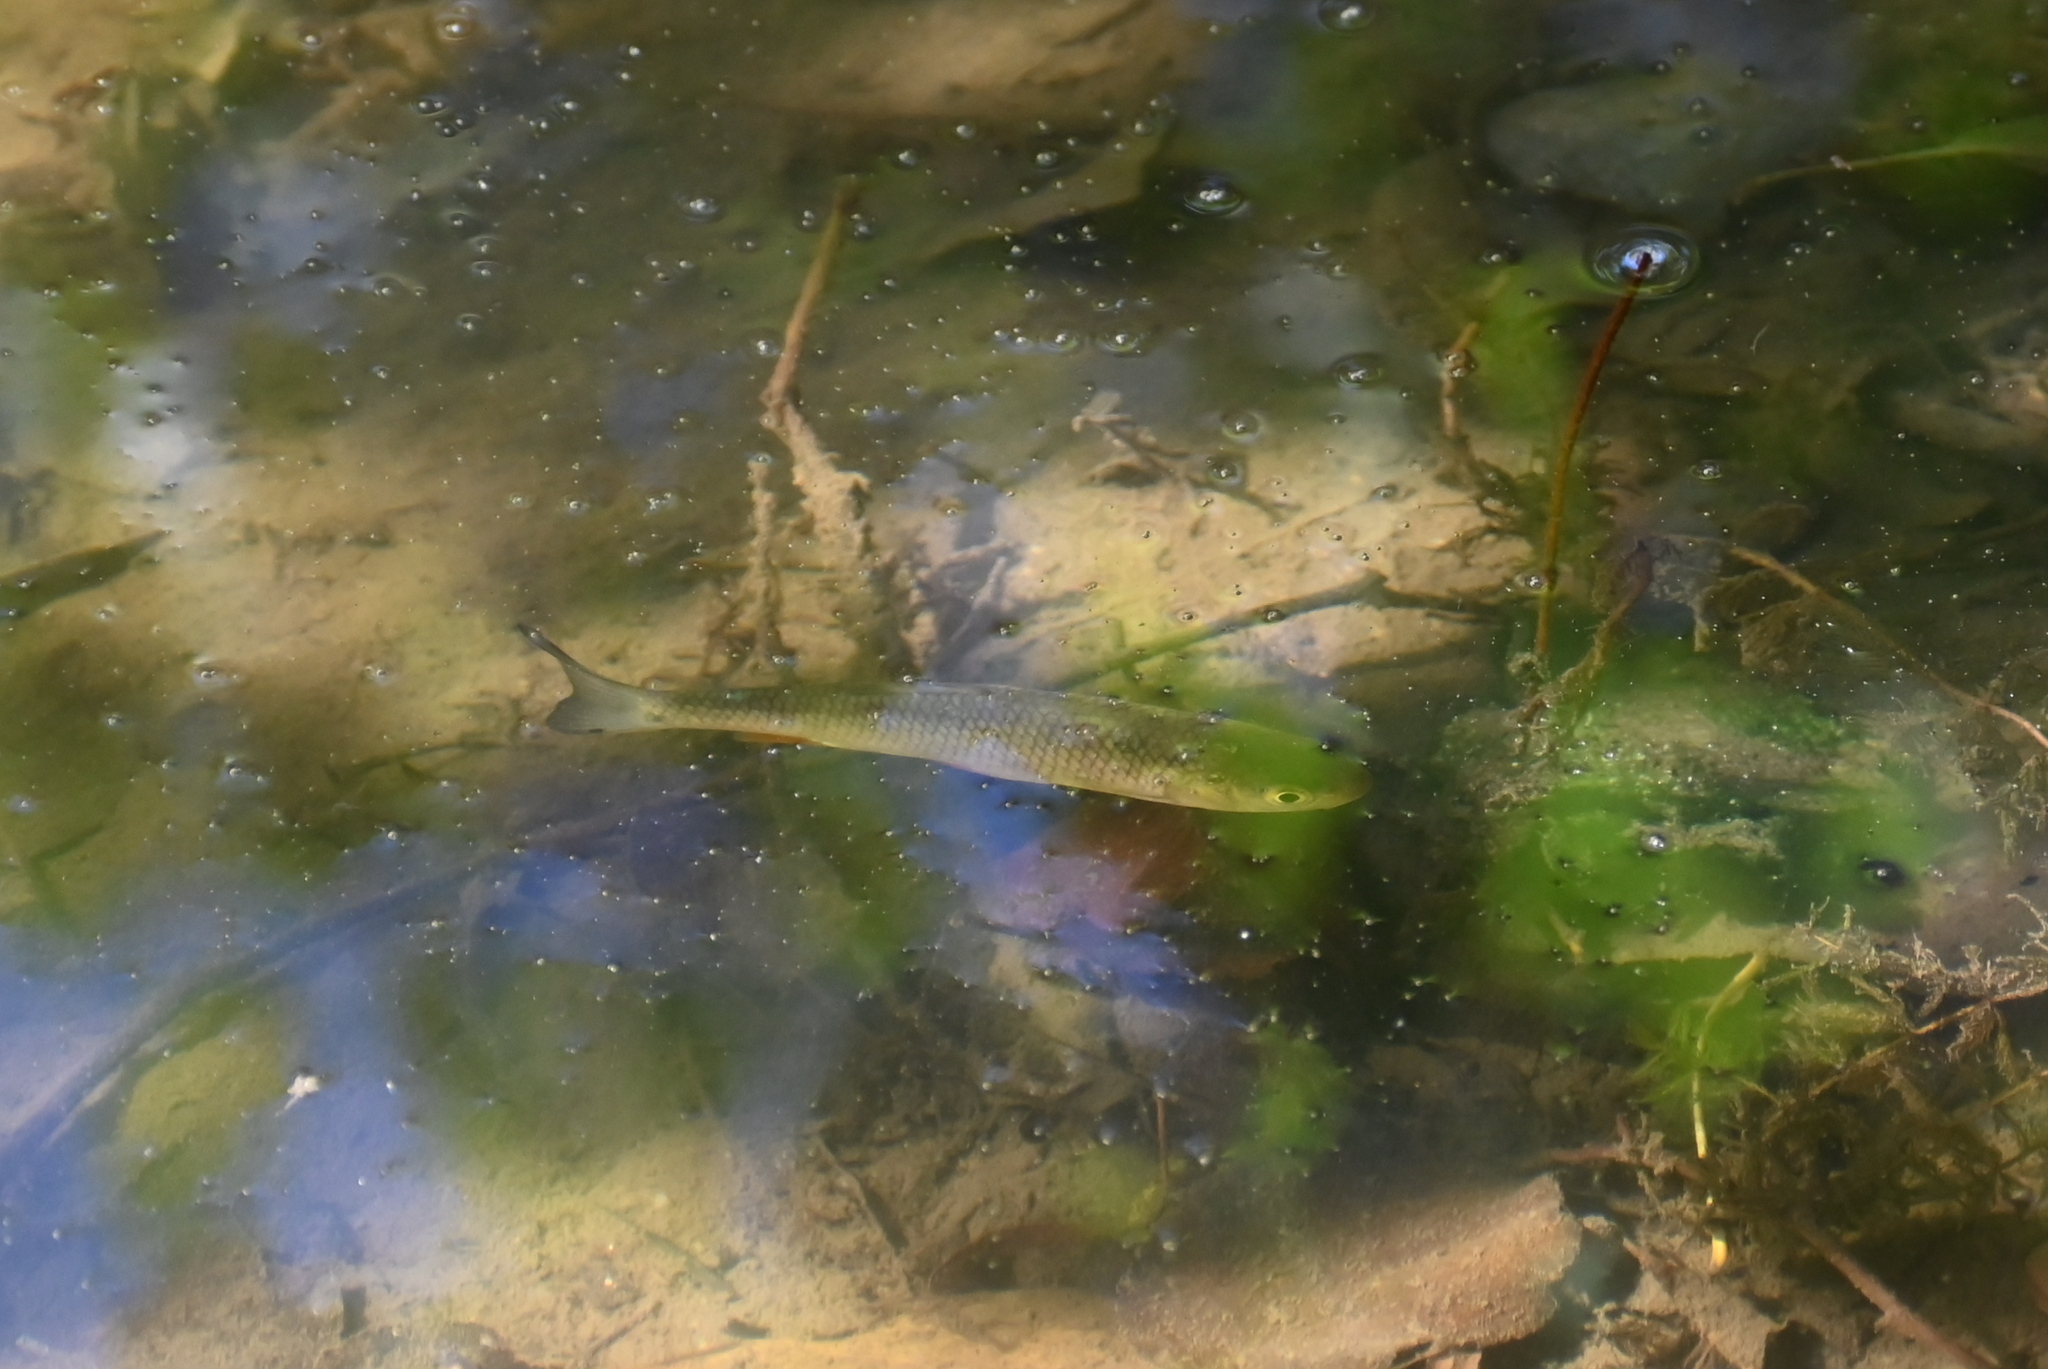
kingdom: Animalia
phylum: Chordata
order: Cypriniformes
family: Cyprinidae
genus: Squalius
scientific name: Squalius cephalus
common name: Chub
